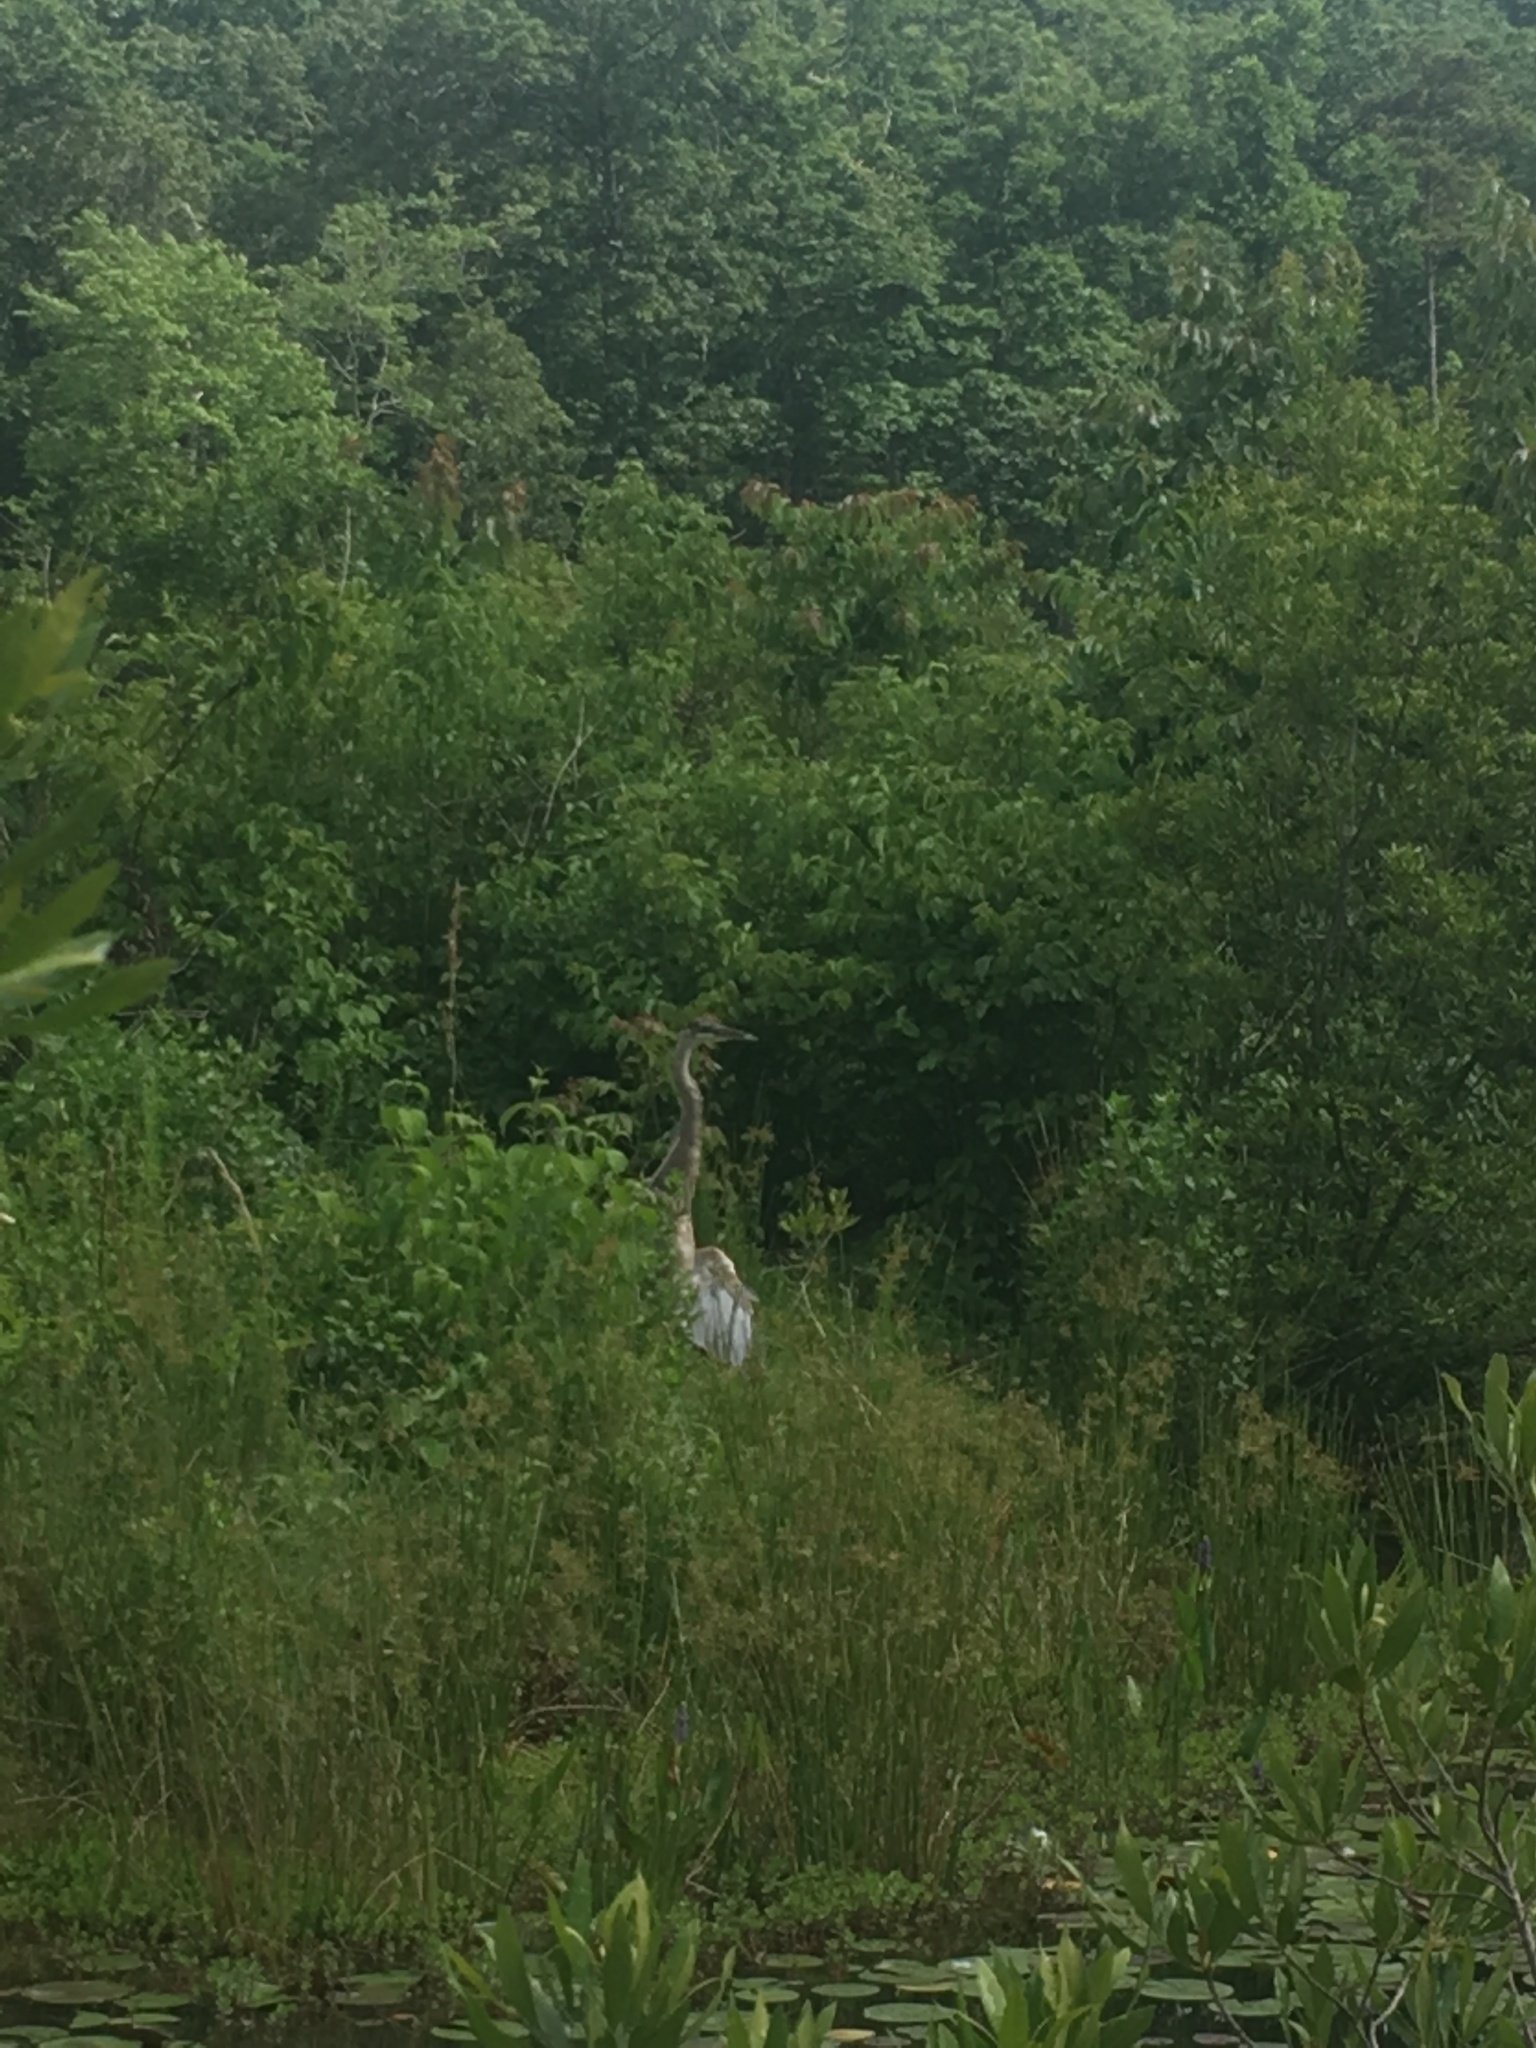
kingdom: Animalia
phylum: Chordata
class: Aves
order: Pelecaniformes
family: Ardeidae
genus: Ardea
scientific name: Ardea herodias
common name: Great blue heron
